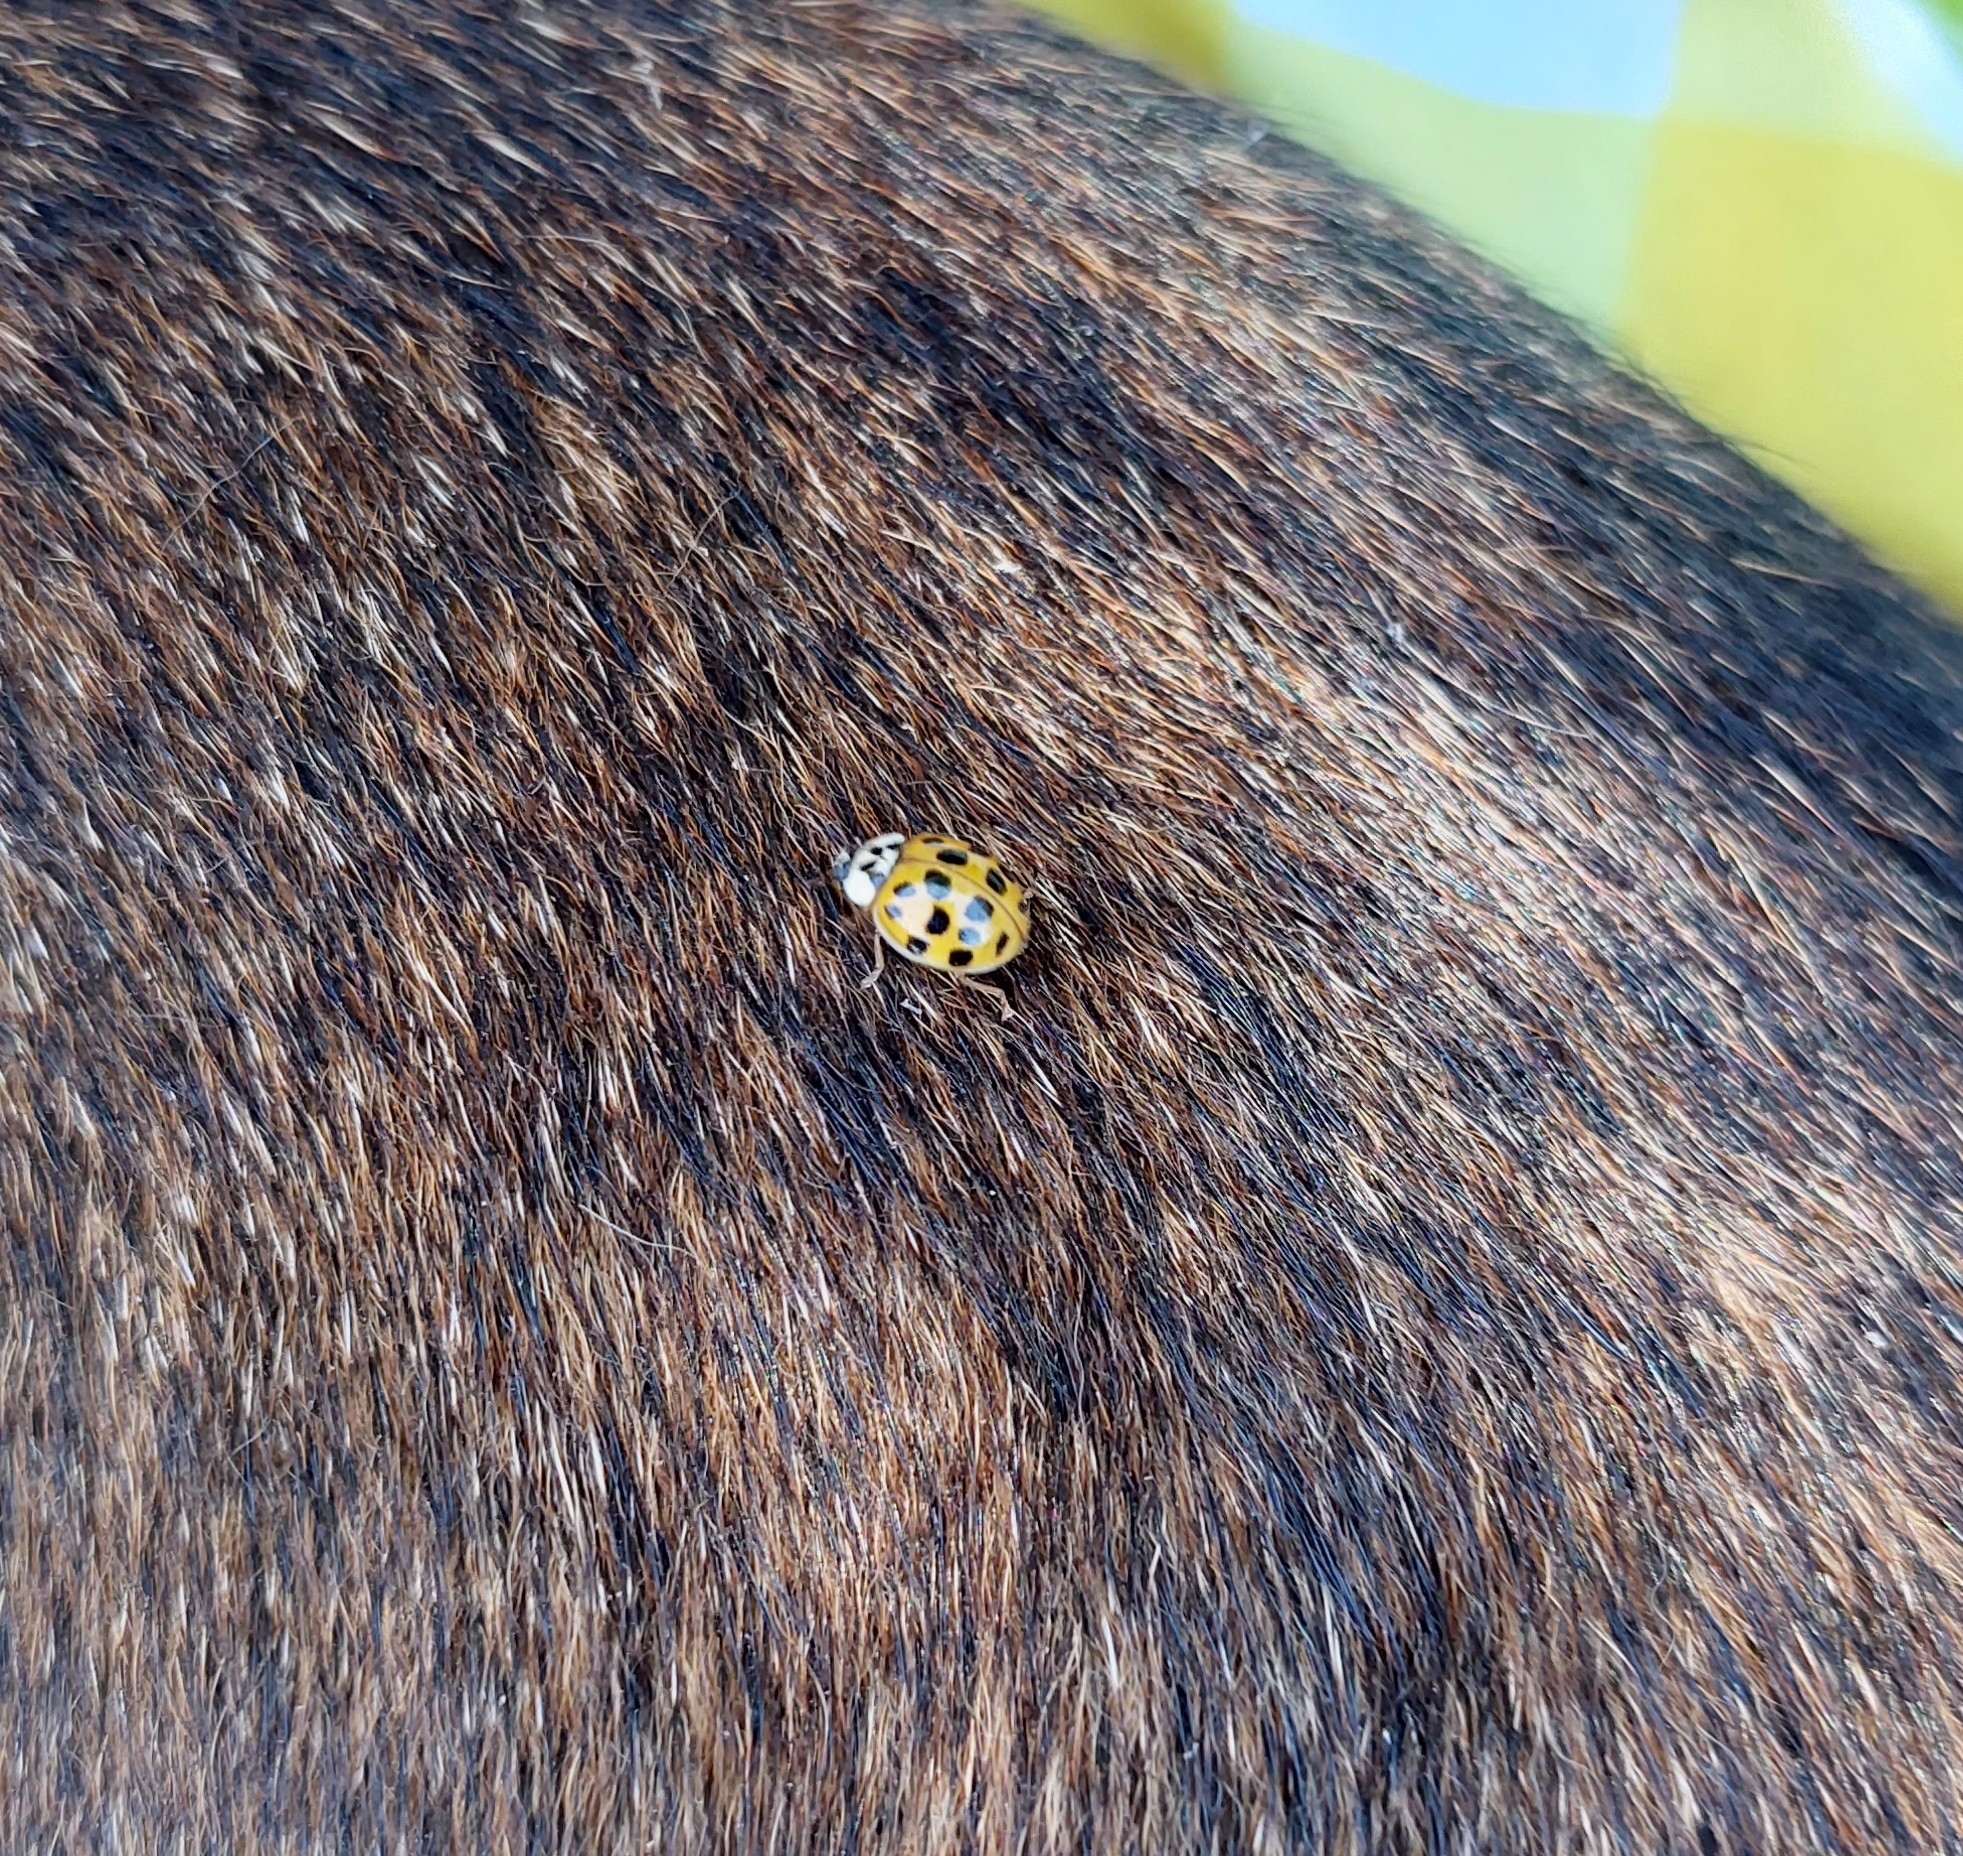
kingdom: Animalia
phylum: Arthropoda
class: Insecta
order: Coleoptera
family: Coccinellidae
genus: Harmonia
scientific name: Harmonia axyridis
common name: Harlequin ladybird
